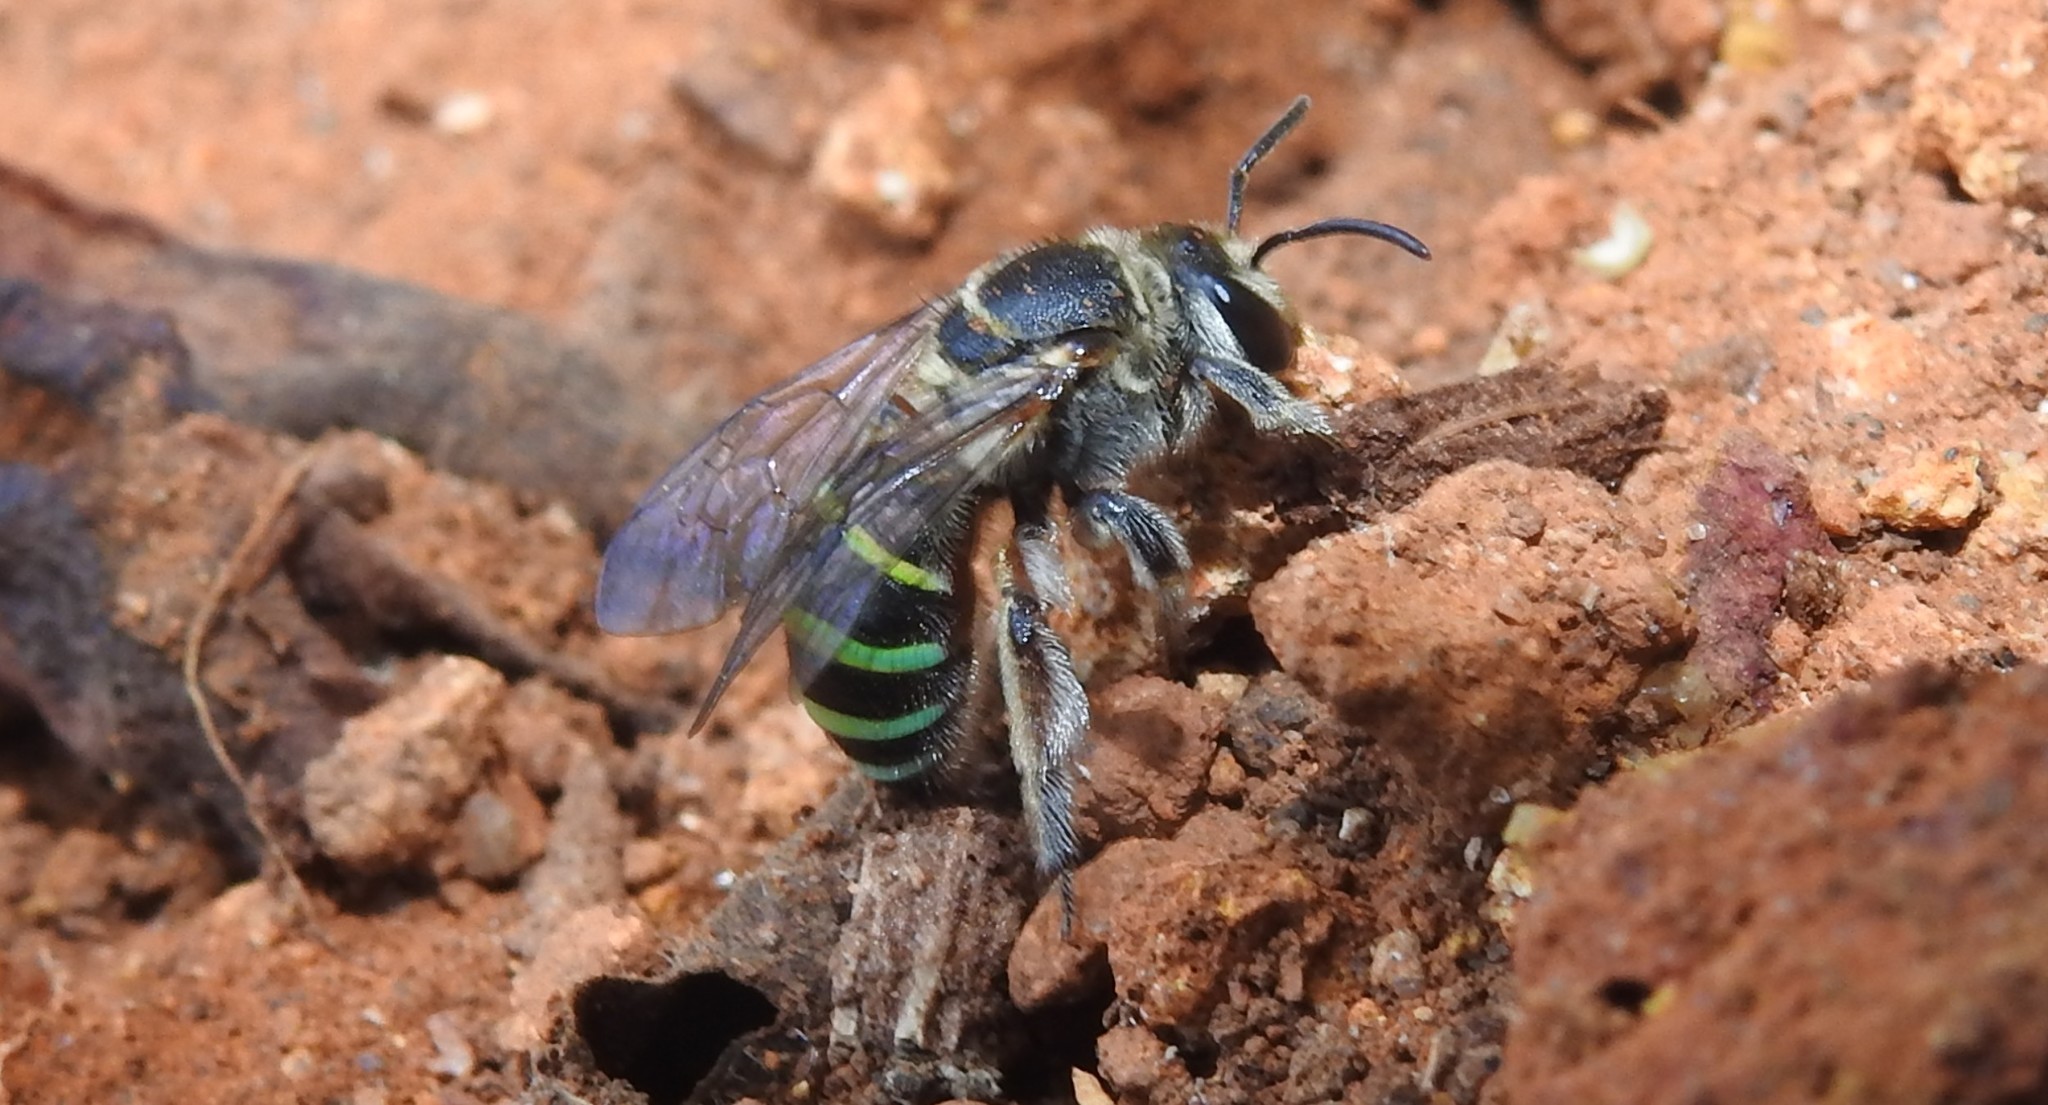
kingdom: Animalia
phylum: Arthropoda
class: Insecta
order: Hymenoptera
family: Halictidae
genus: Nomia
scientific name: Nomia westwoodi
